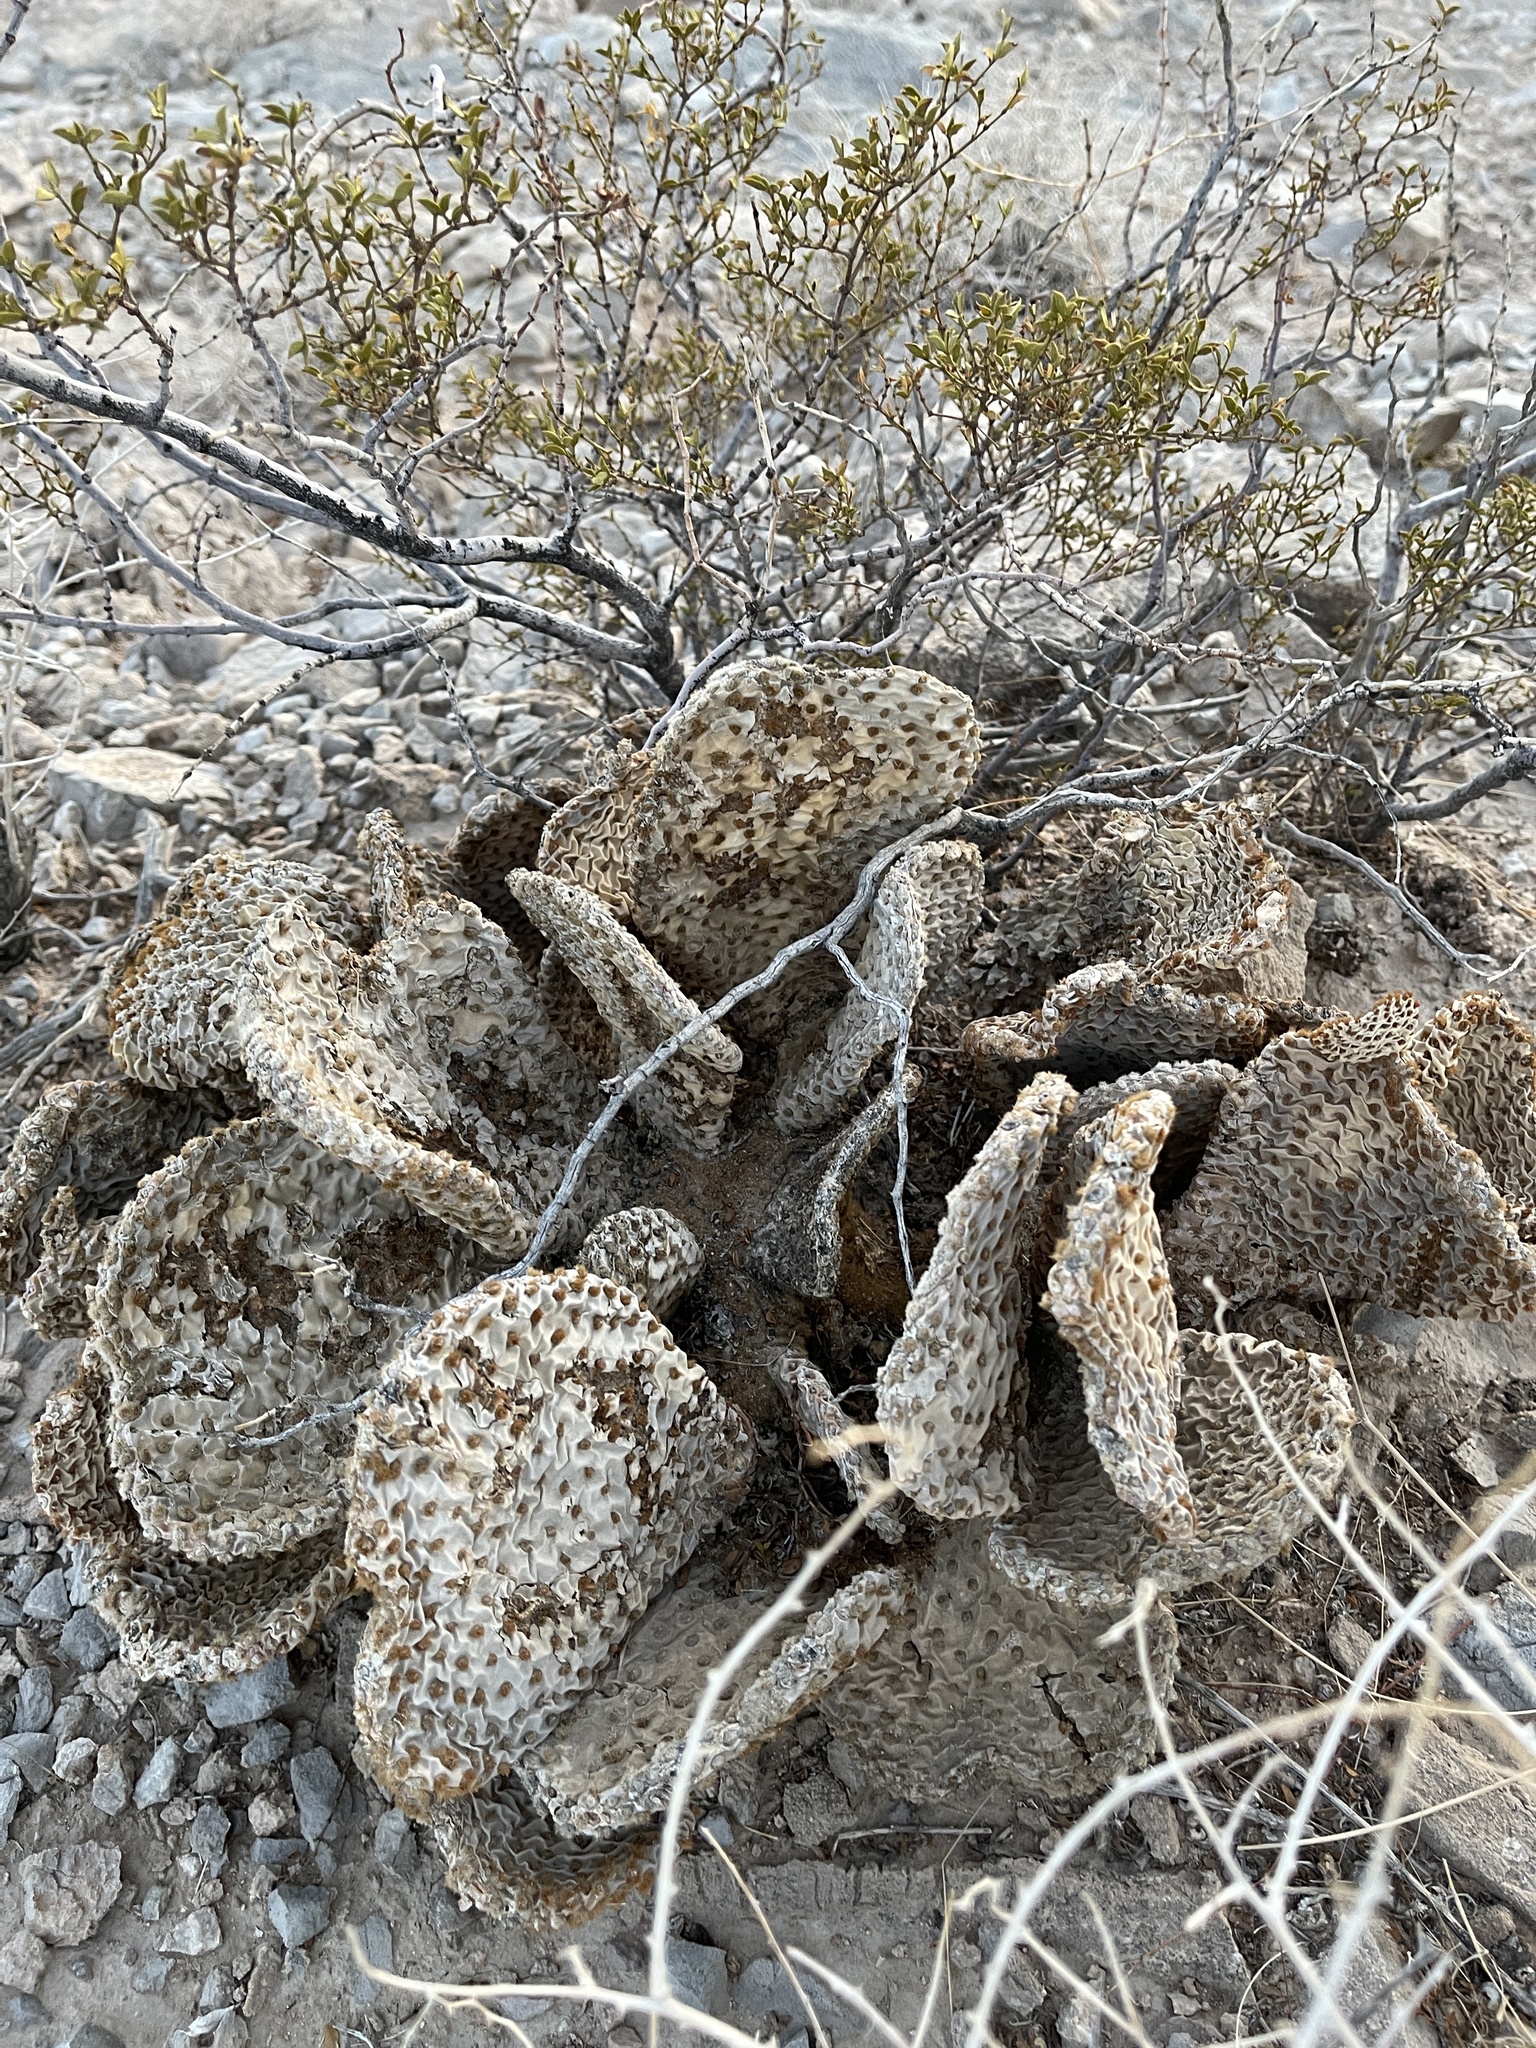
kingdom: Plantae
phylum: Tracheophyta
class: Magnoliopsida
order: Caryophyllales
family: Cactaceae
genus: Opuntia
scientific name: Opuntia basilaris
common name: Beavertail prickly-pear
